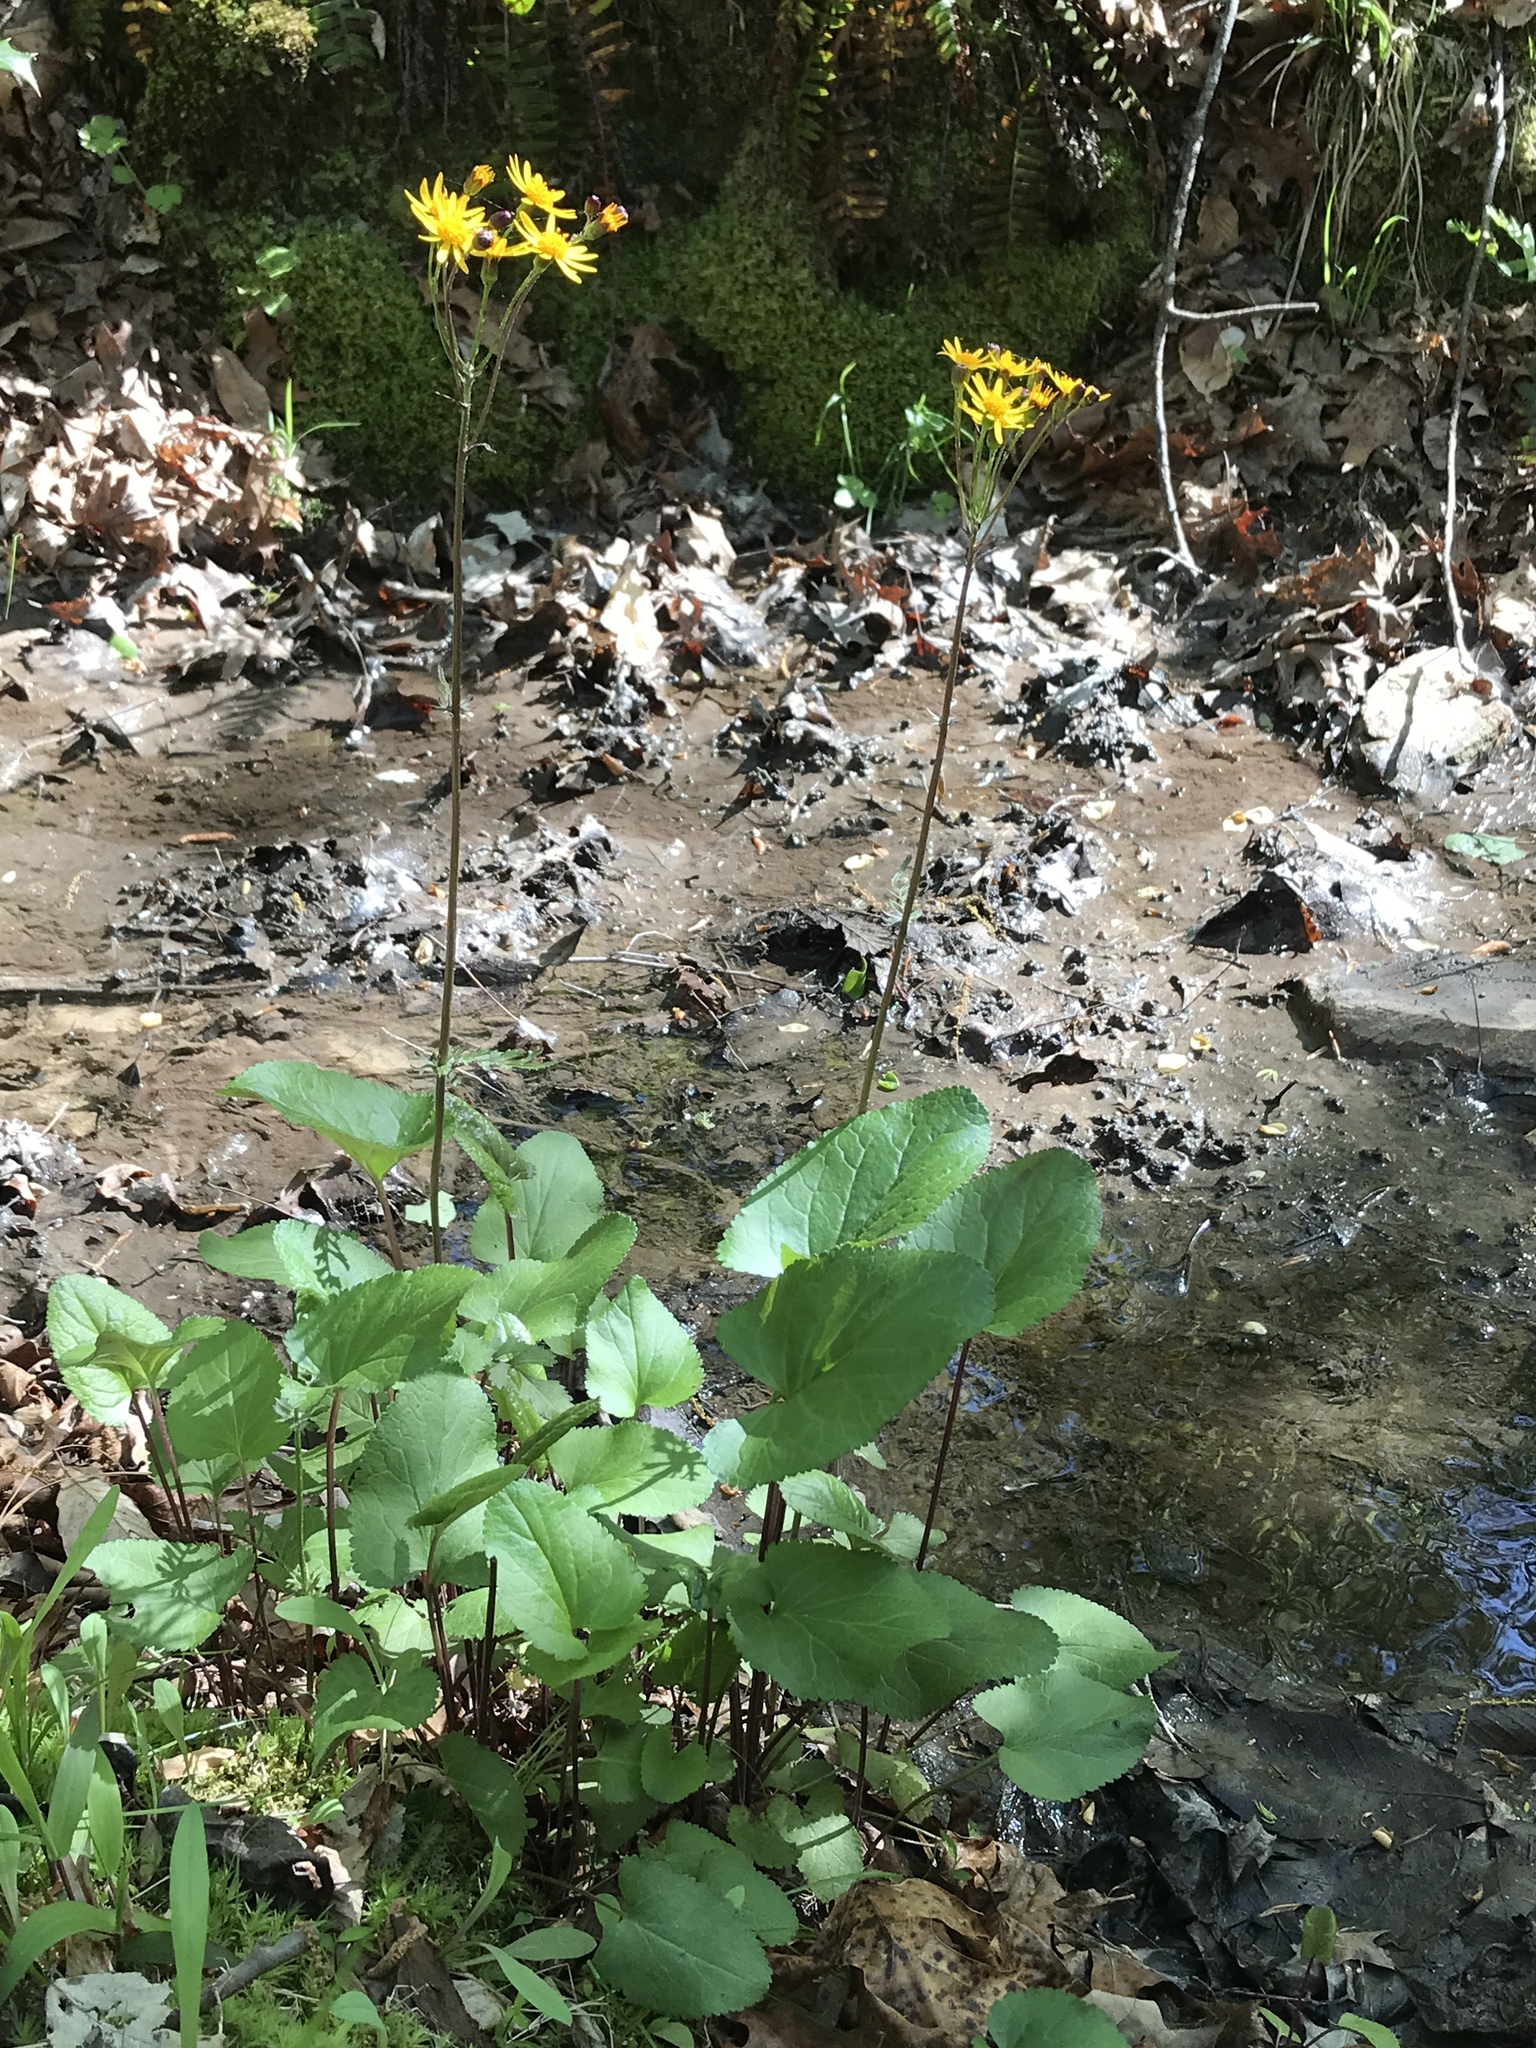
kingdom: Plantae
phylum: Tracheophyta
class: Magnoliopsida
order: Asterales
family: Asteraceae
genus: Packera
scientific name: Packera aurea
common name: Golden groundsel
